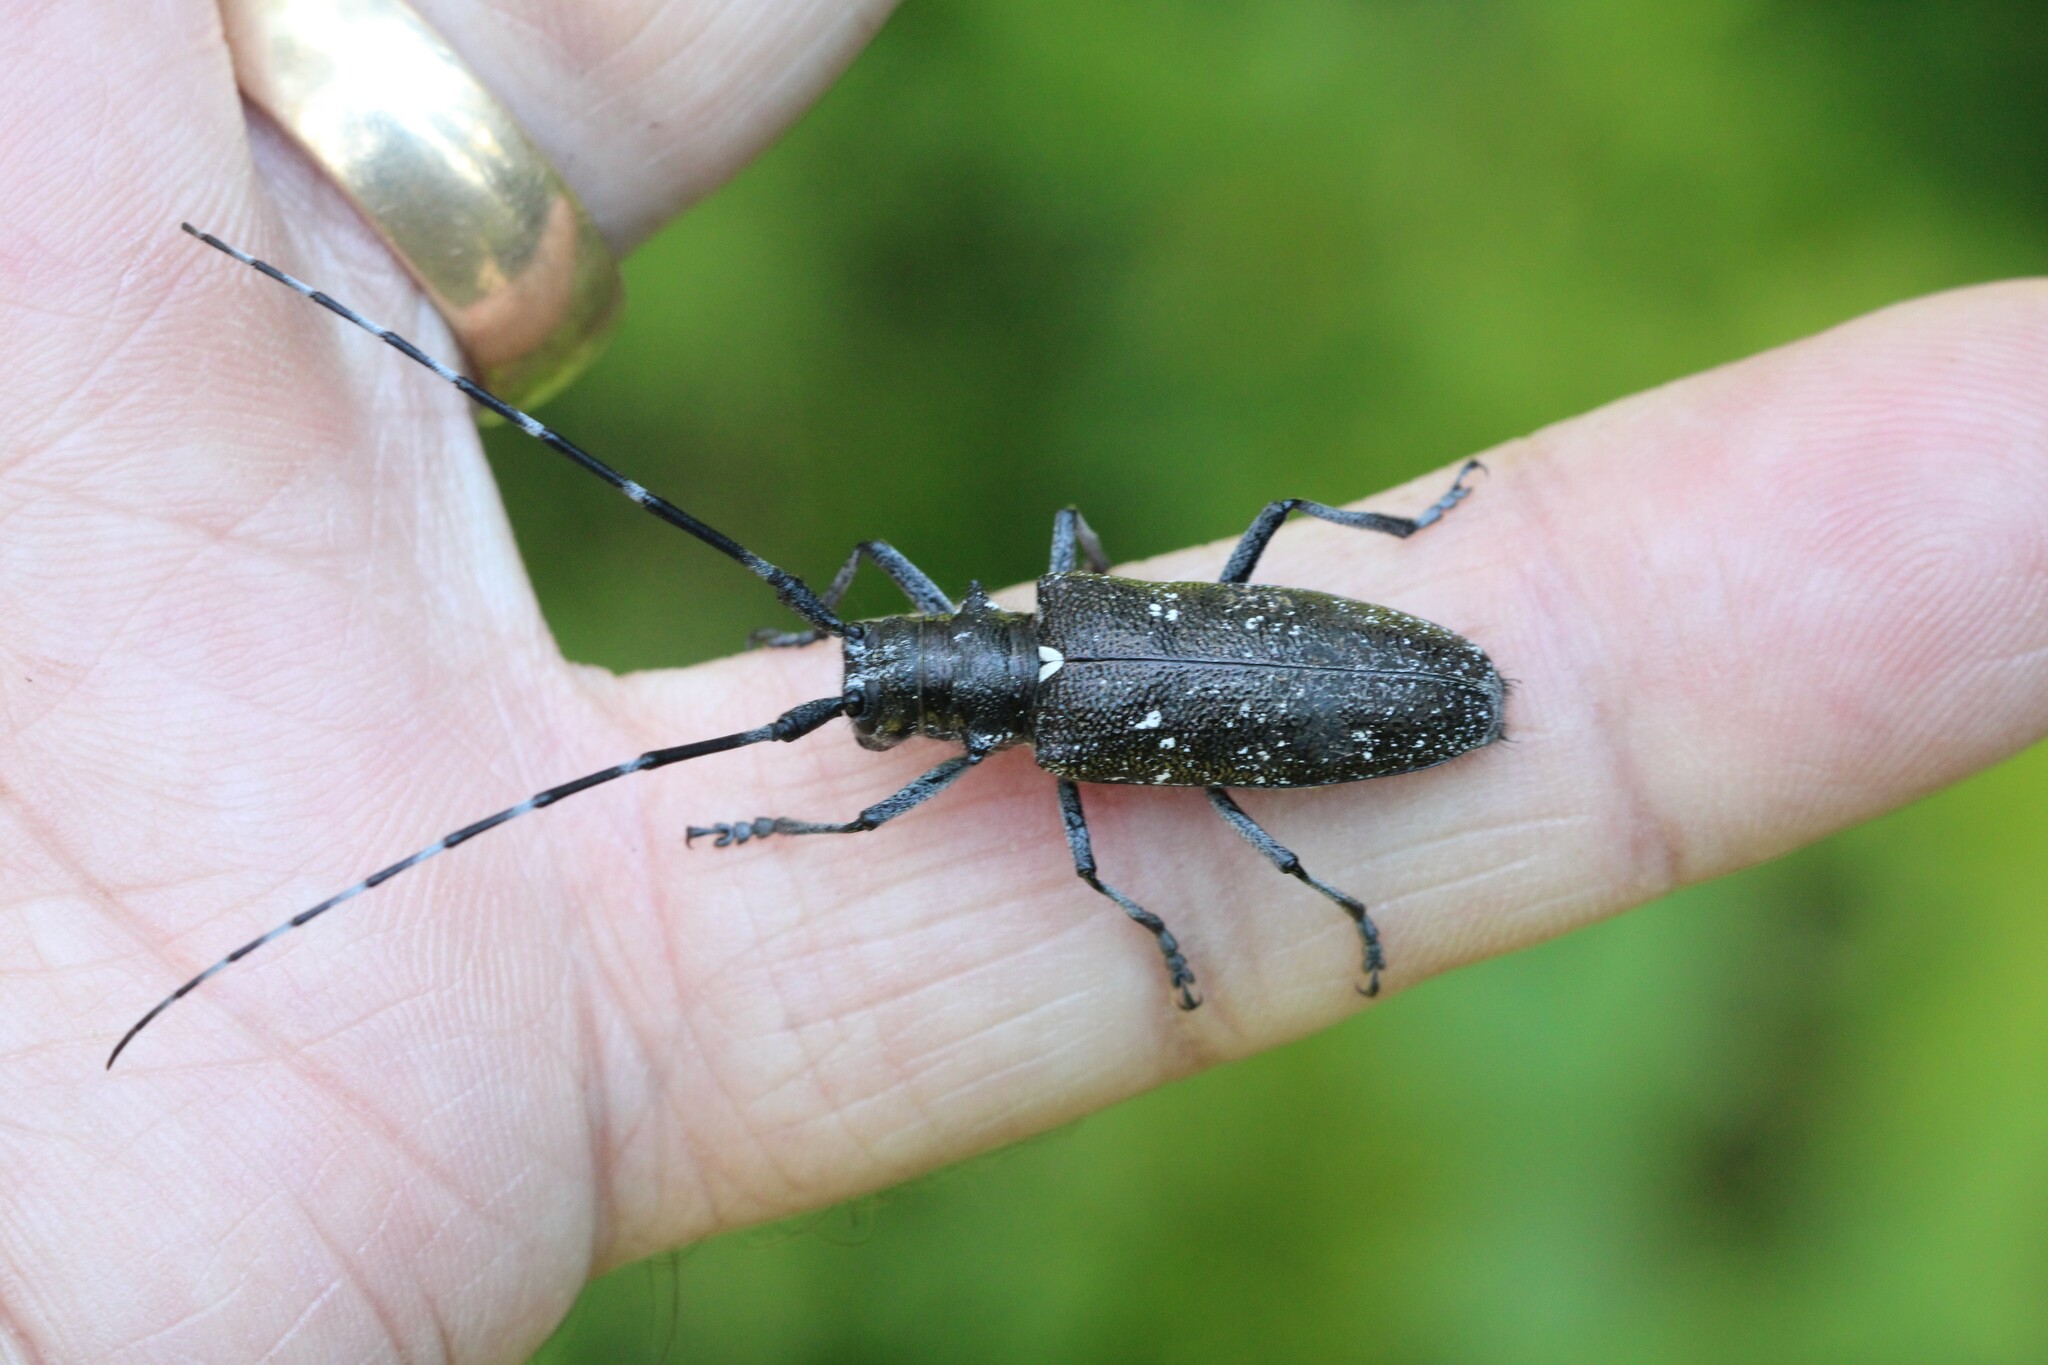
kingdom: Animalia
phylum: Arthropoda
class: Insecta
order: Coleoptera
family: Cerambycidae
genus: Monochamus
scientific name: Monochamus scutellatus
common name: White-spotted sawyer beetle
